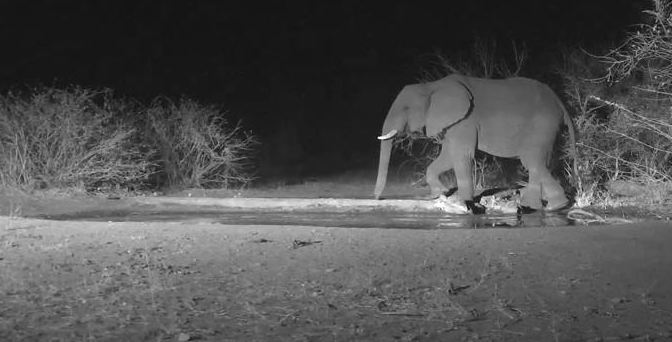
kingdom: Animalia
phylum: Chordata
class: Mammalia
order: Proboscidea
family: Elephantidae
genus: Loxodonta
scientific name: Loxodonta africana
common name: African elephant
